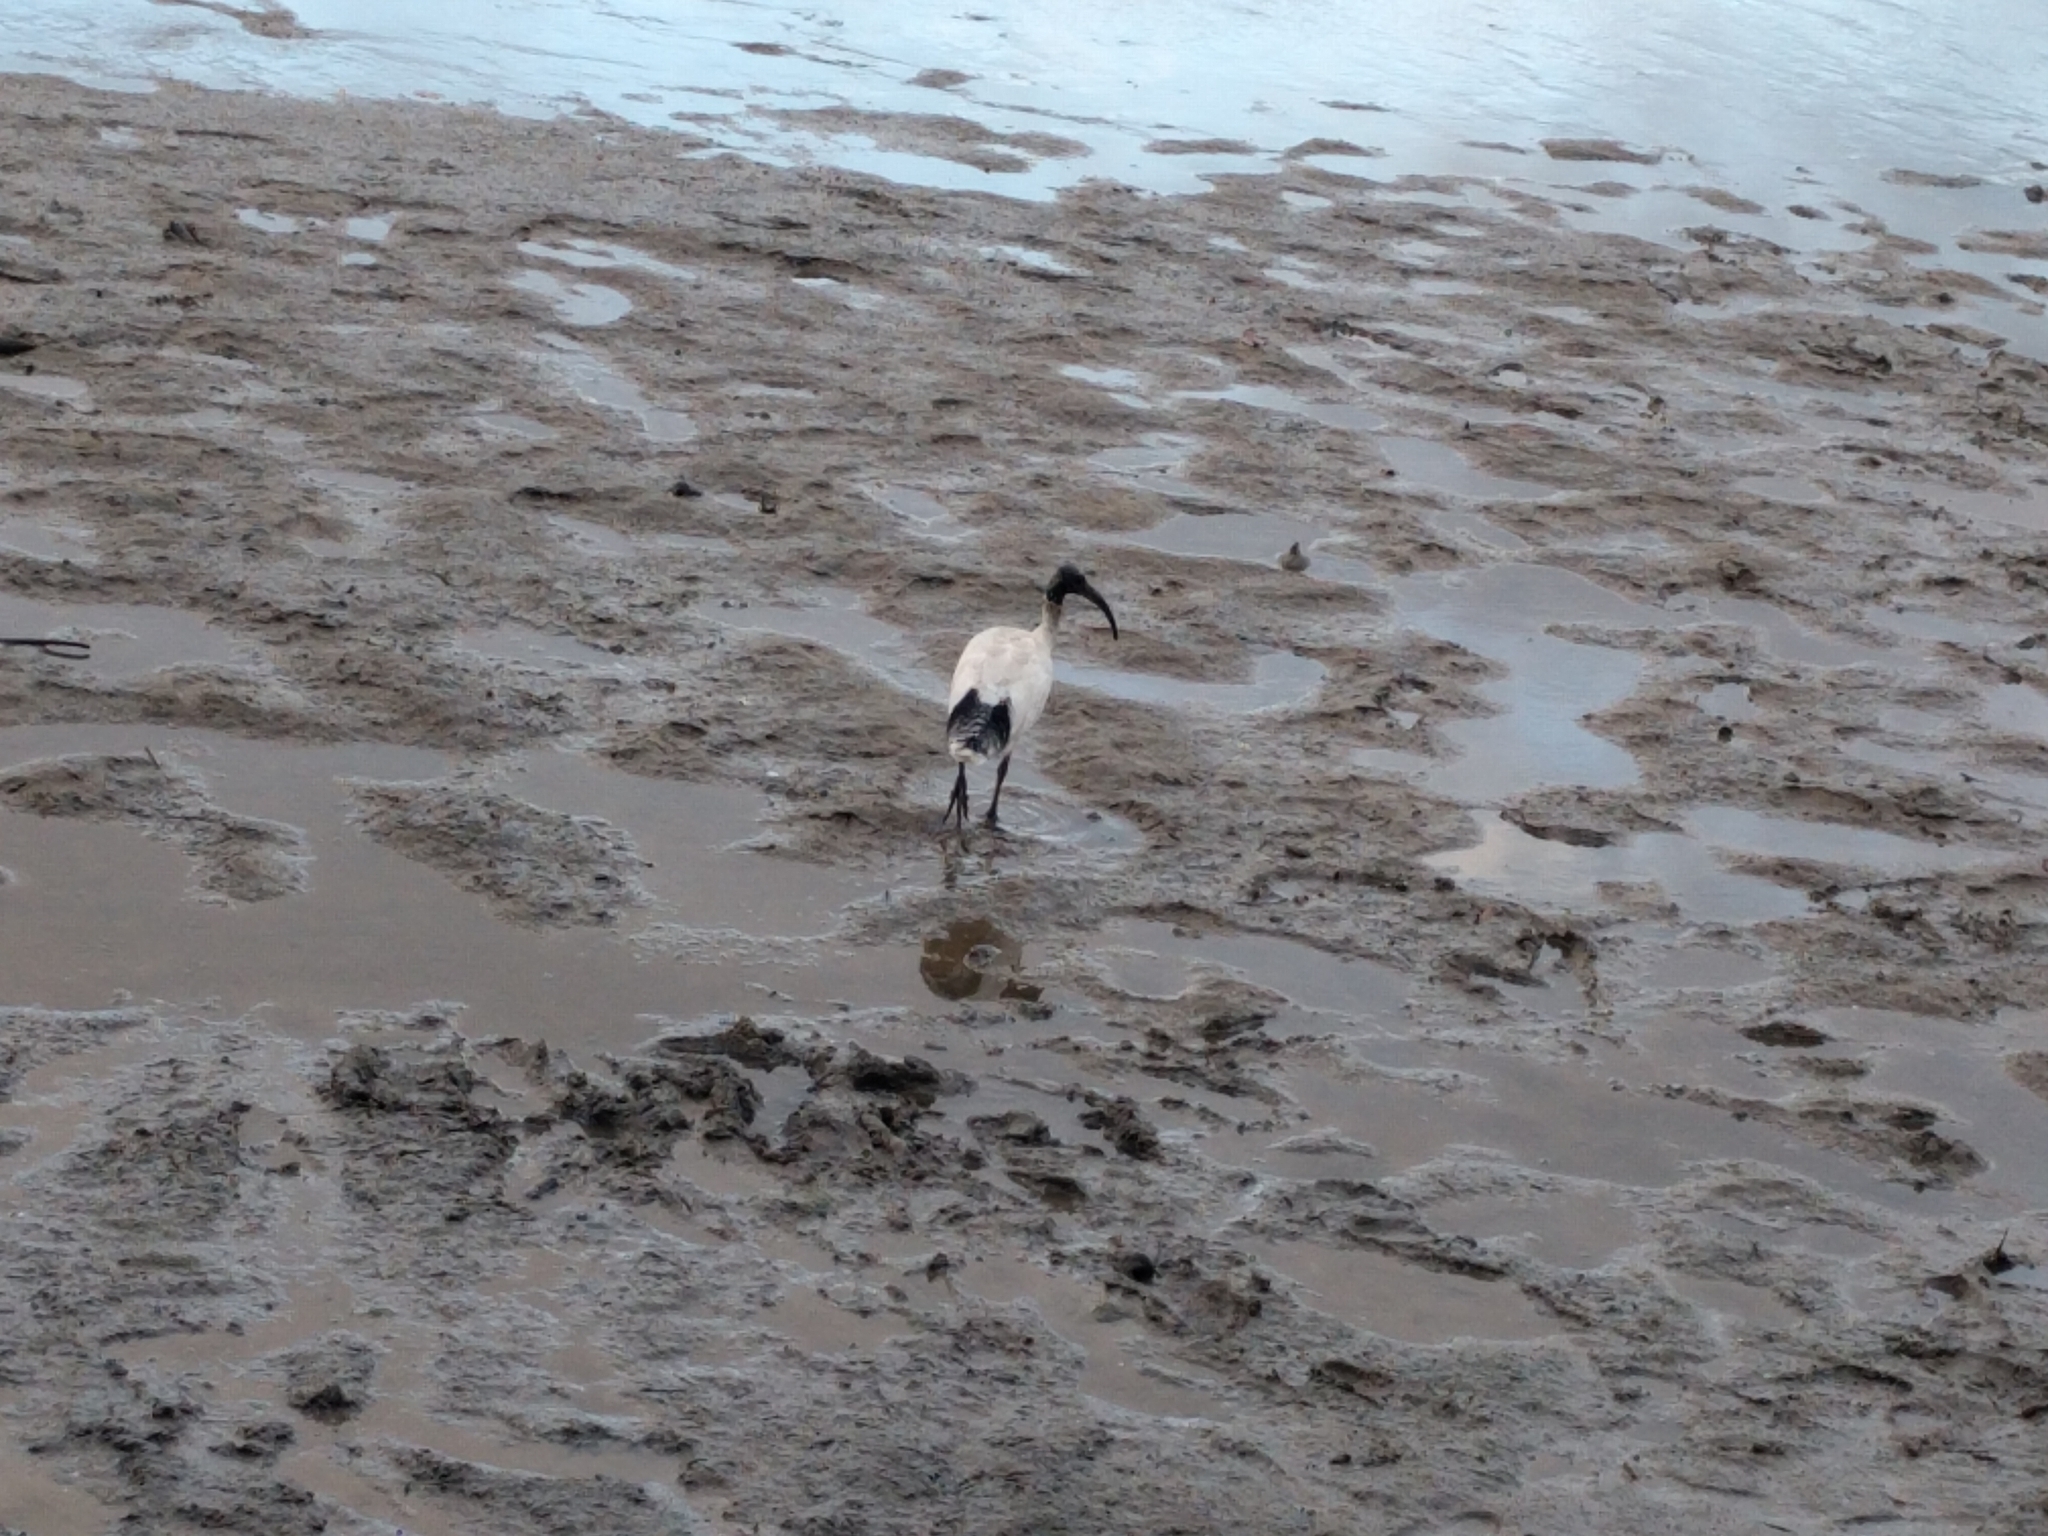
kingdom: Animalia
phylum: Chordata
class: Aves
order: Pelecaniformes
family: Threskiornithidae
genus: Threskiornis
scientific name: Threskiornis molucca
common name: Australian white ibis
